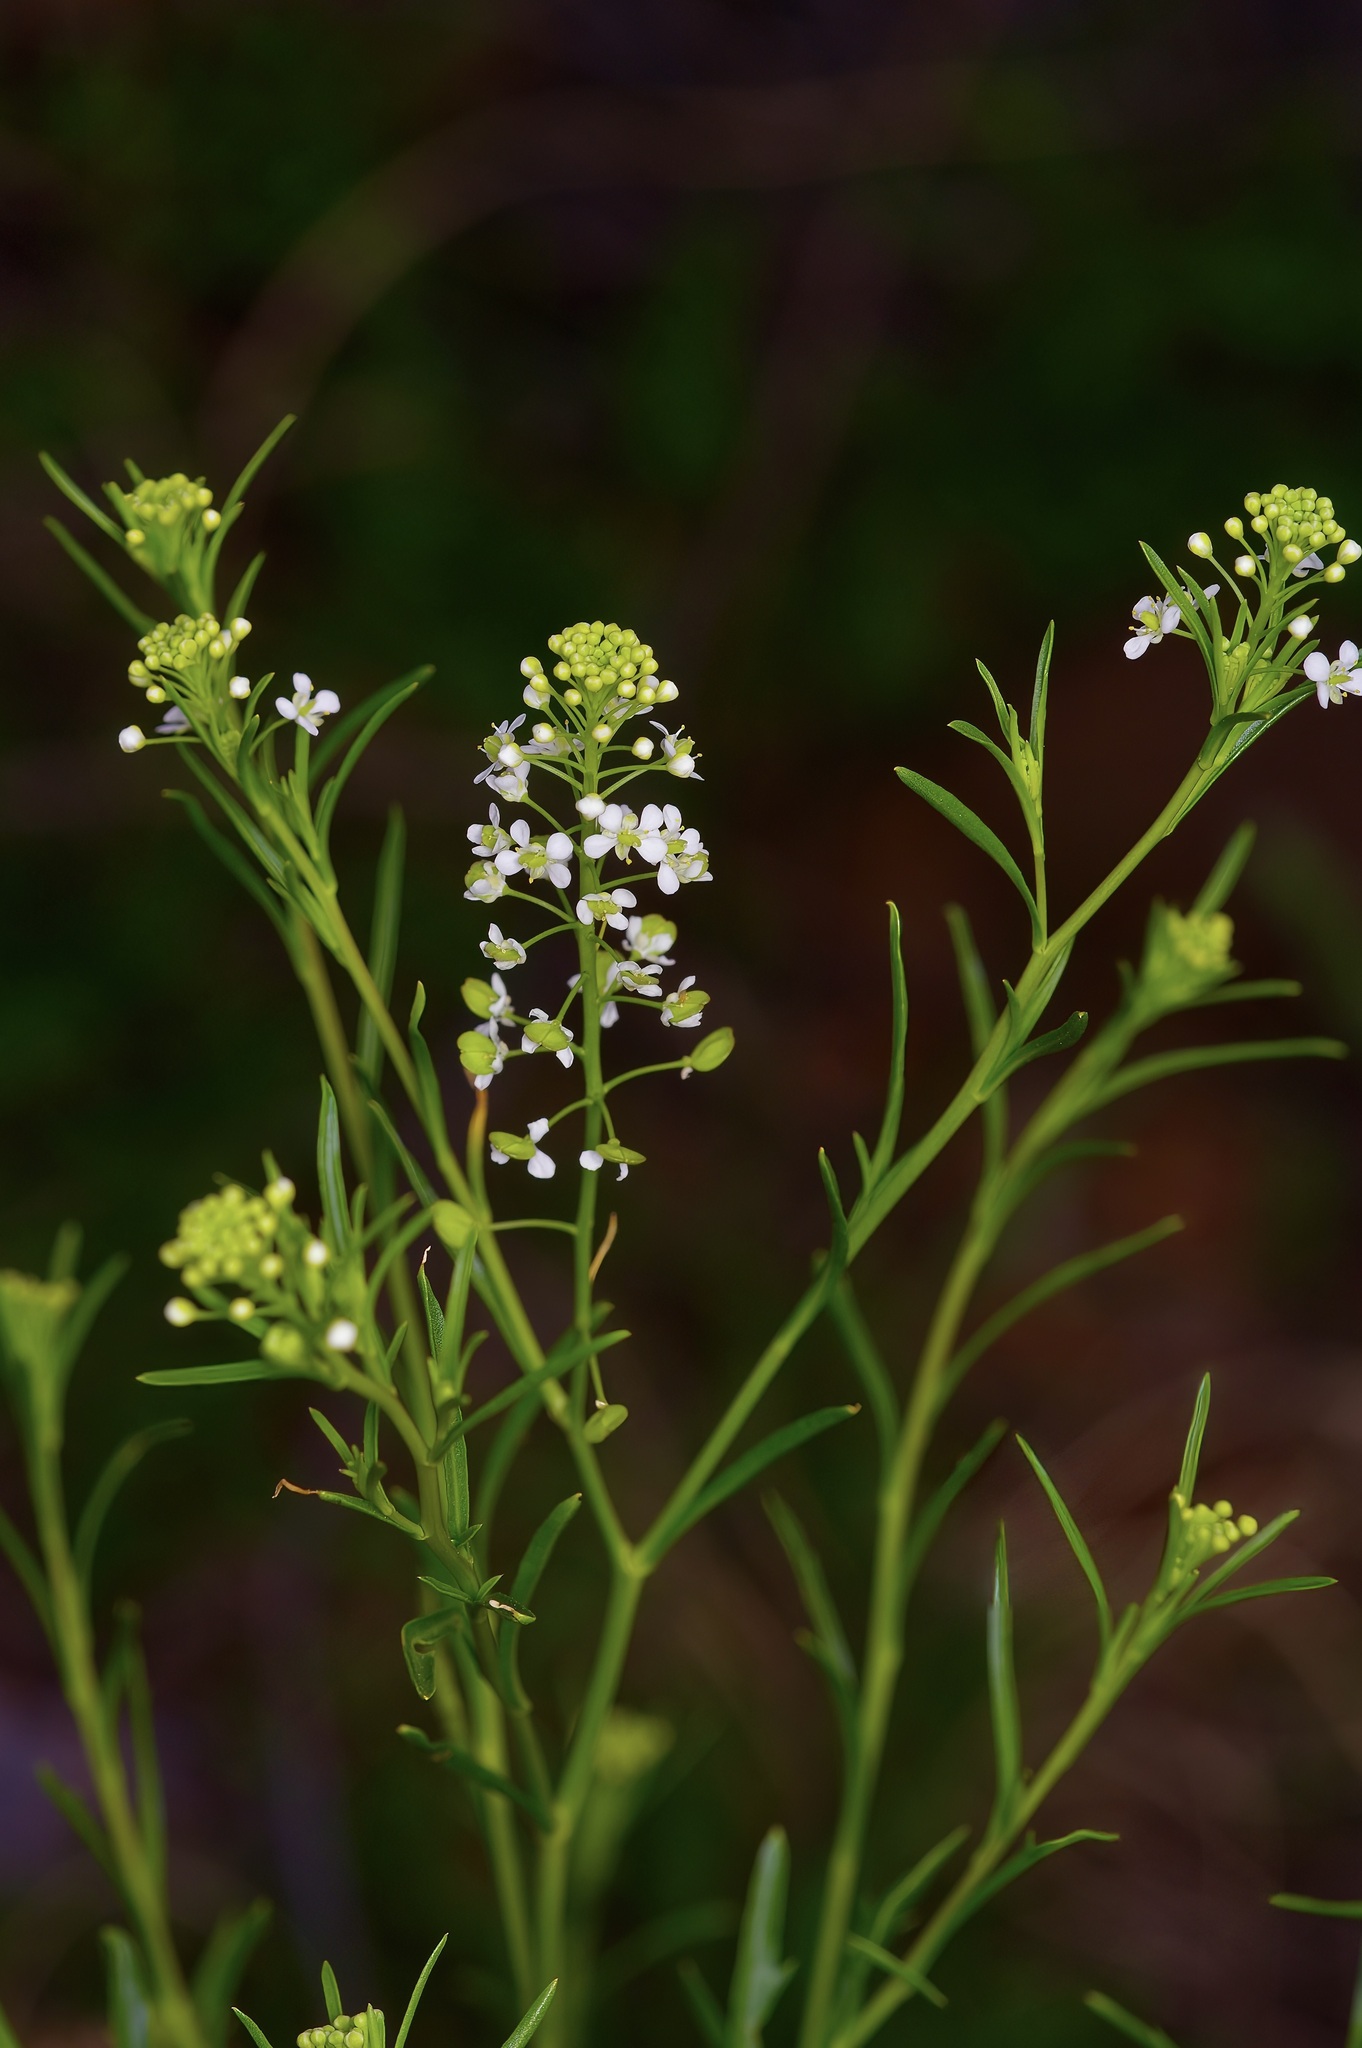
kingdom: Plantae
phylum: Tracheophyta
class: Magnoliopsida
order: Brassicales
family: Brassicaceae
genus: Lepidium
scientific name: Lepidium virginicum
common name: Least pepperwort
